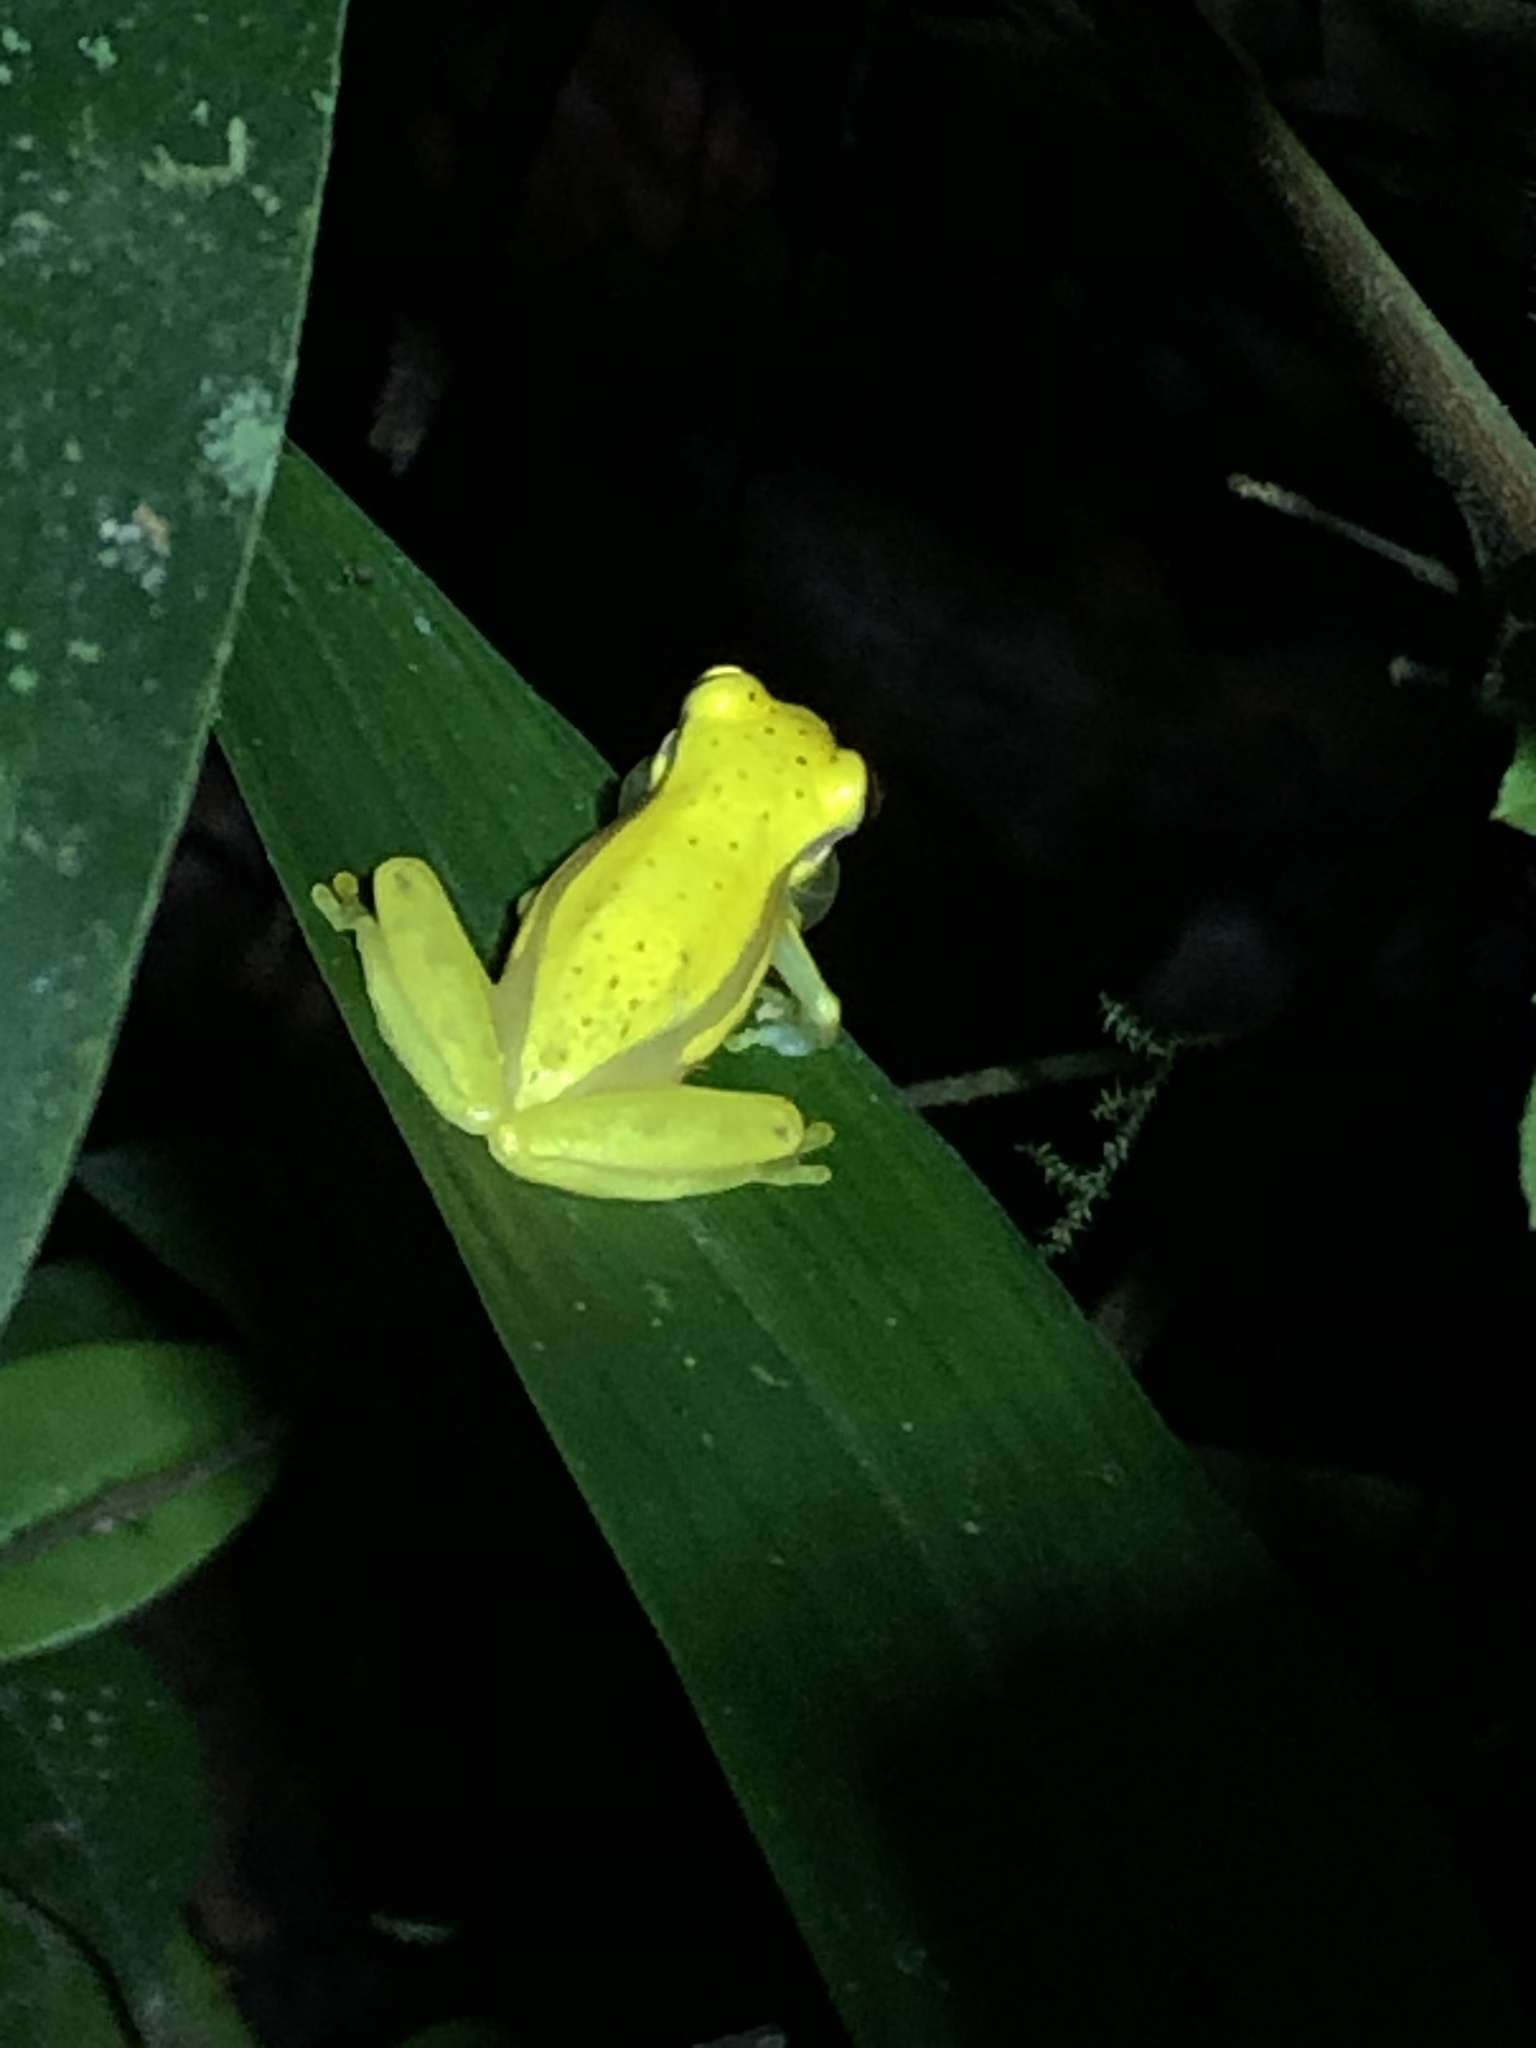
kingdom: Animalia
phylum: Chordata
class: Amphibia
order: Anura
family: Hylidae
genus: Dendropsophus
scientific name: Dendropsophus rhodopeplus
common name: Red-skirted treefrog
